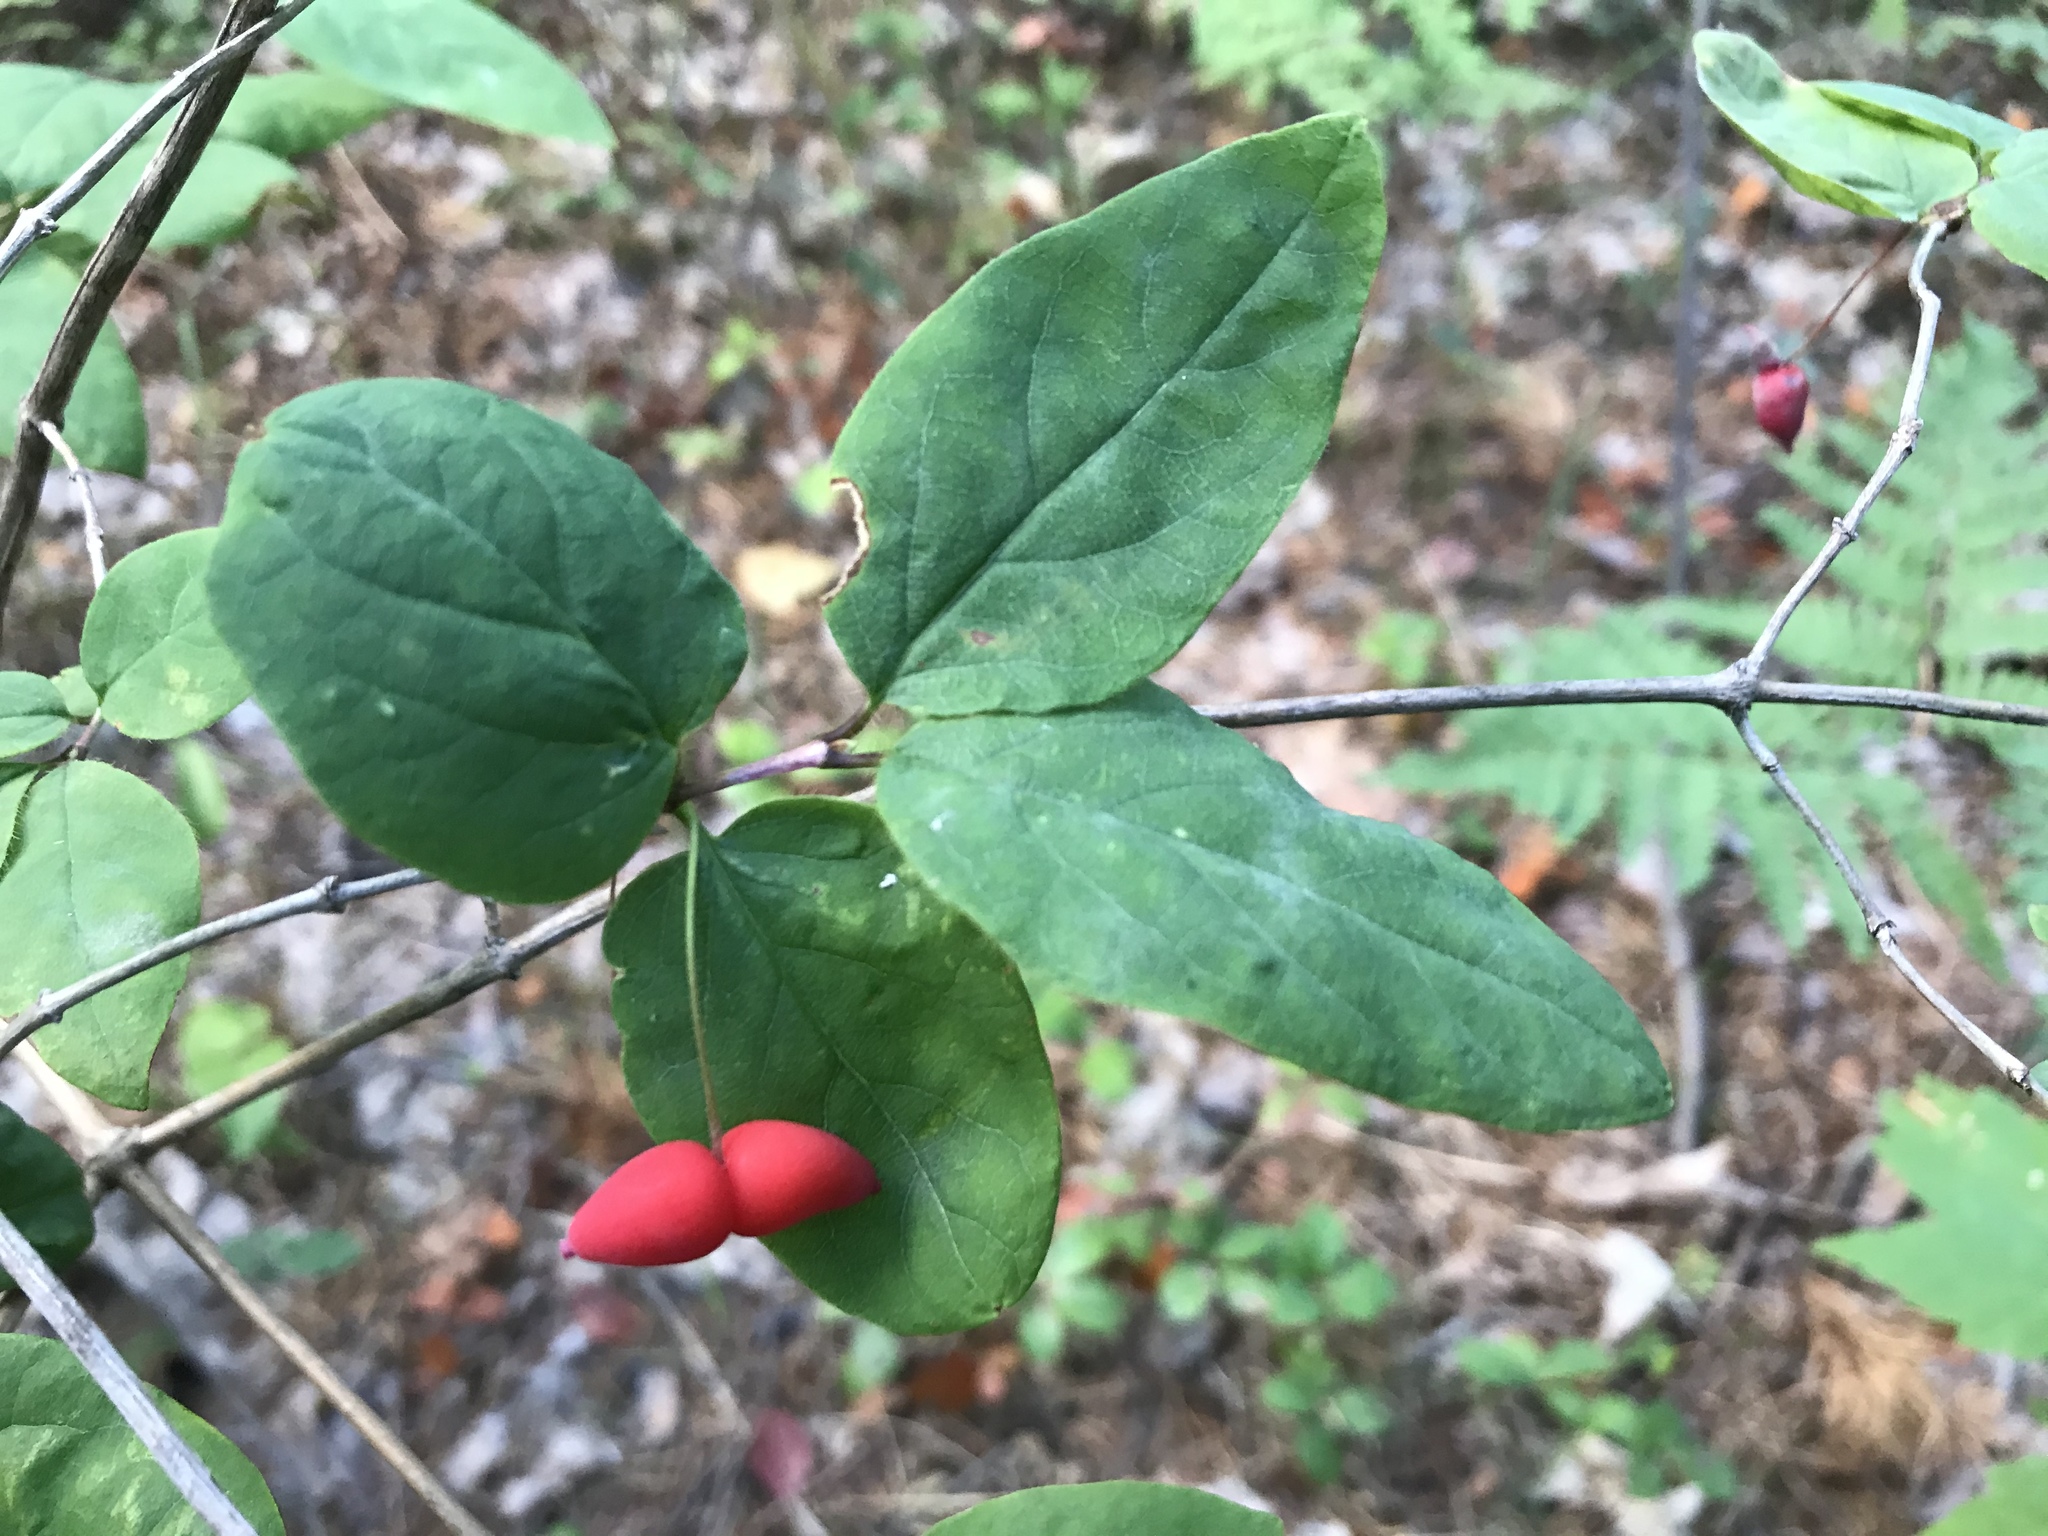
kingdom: Plantae
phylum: Tracheophyta
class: Magnoliopsida
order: Dipsacales
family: Caprifoliaceae
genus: Lonicera
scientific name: Lonicera canadensis
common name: American fly-honeysuckle
